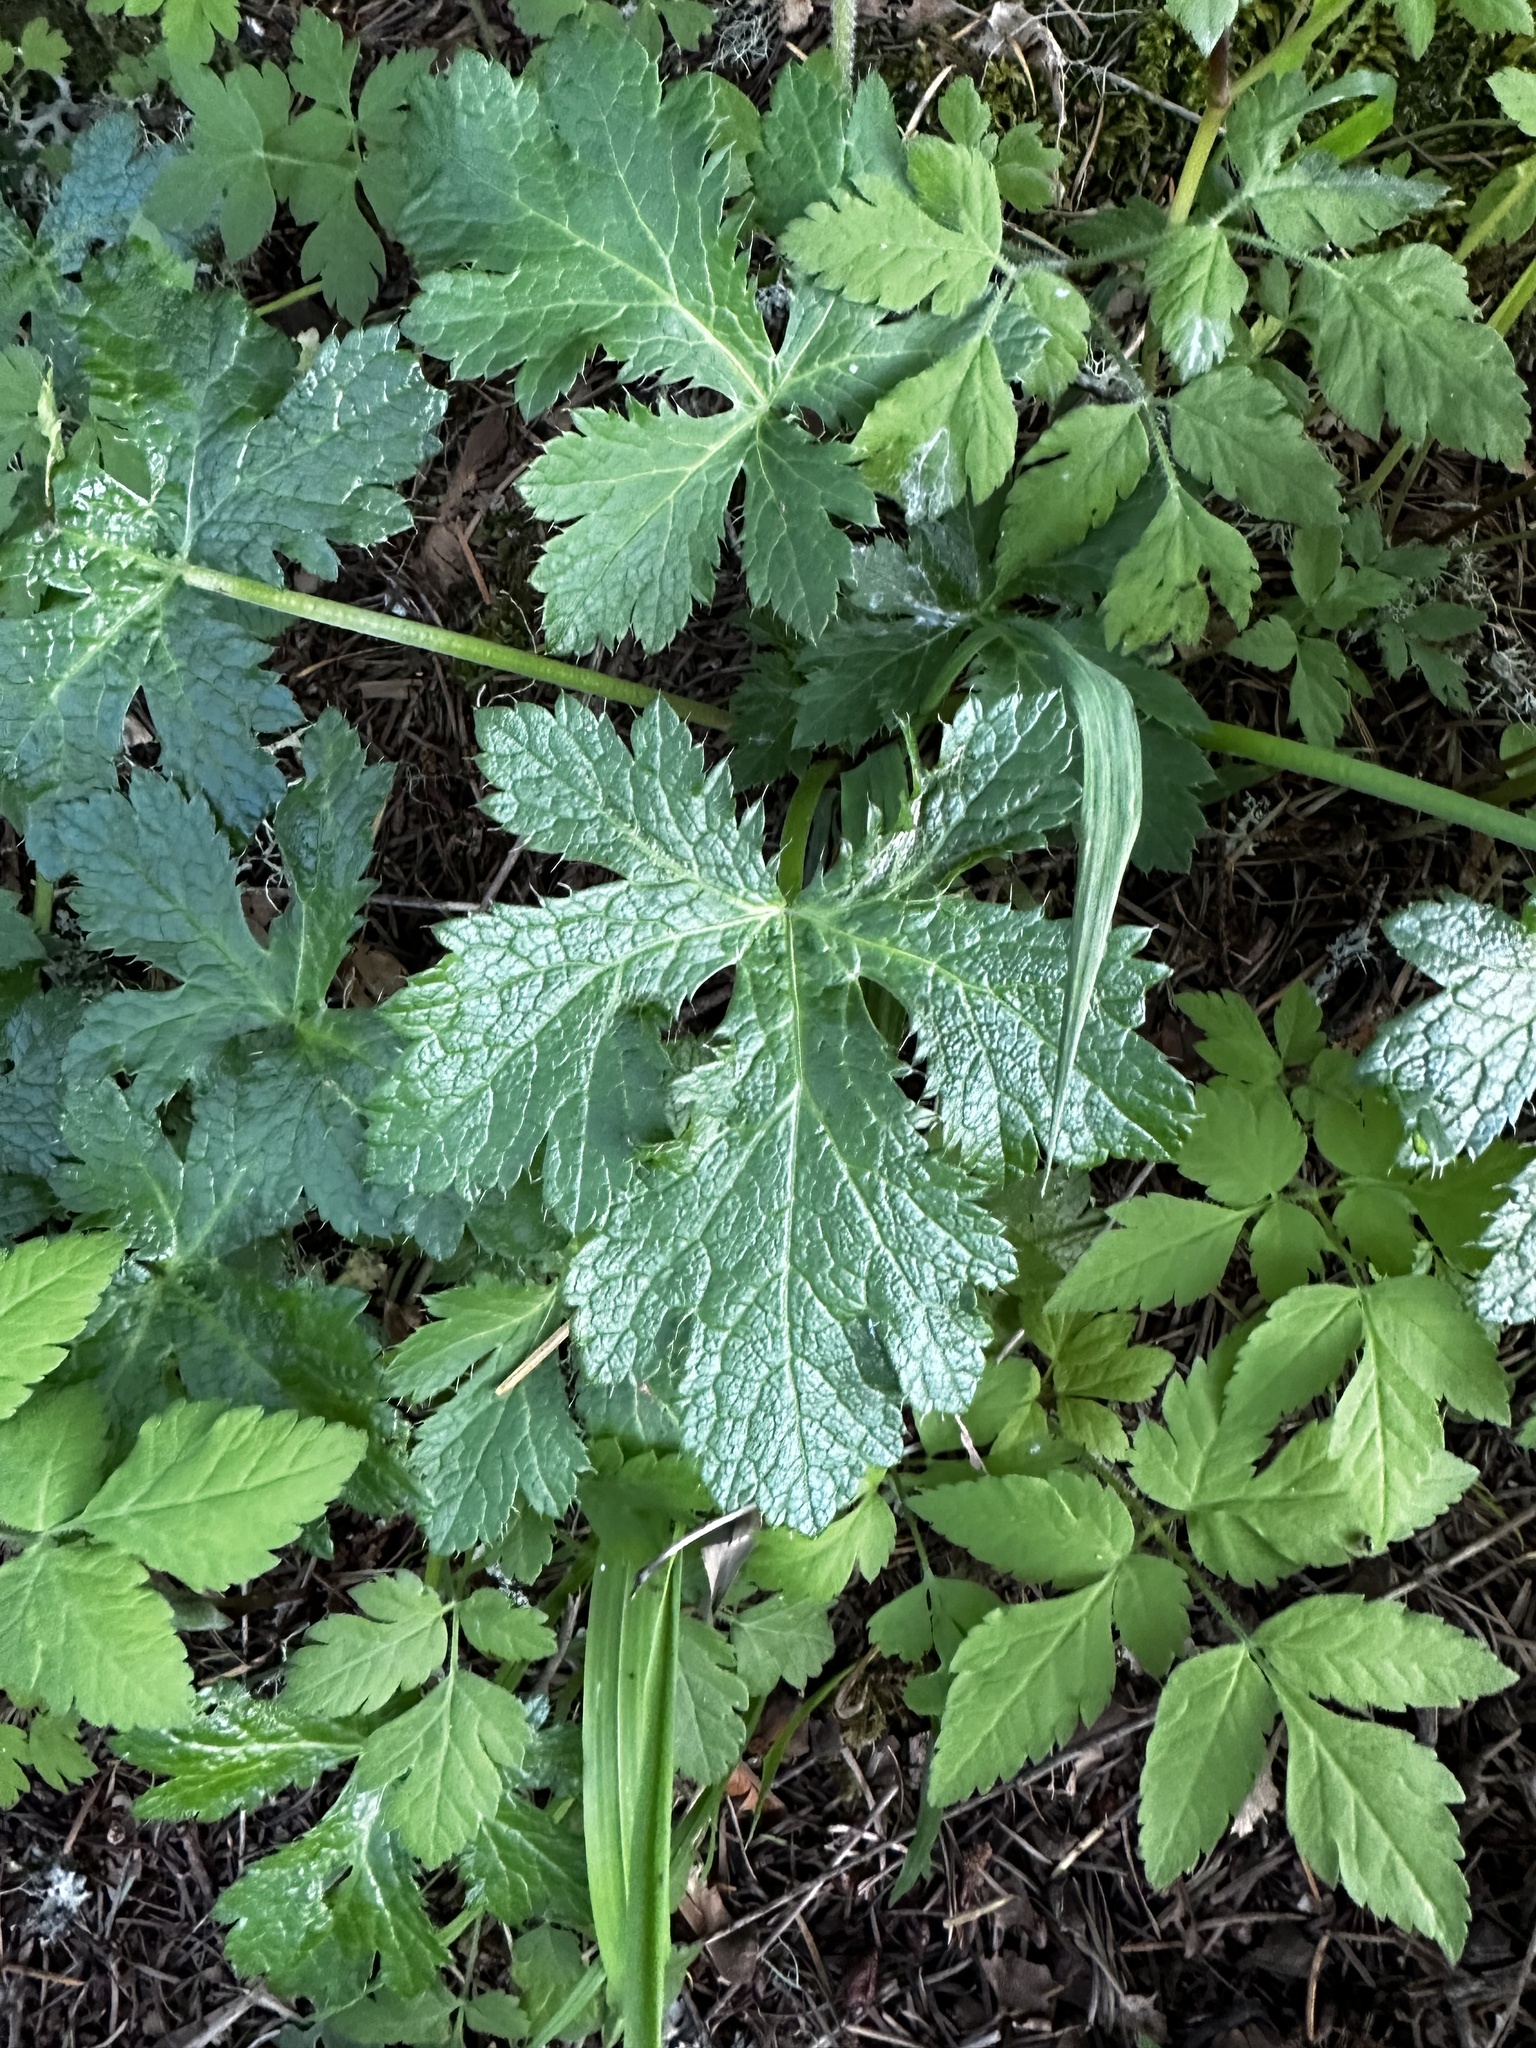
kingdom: Plantae
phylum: Tracheophyta
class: Magnoliopsida
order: Apiales
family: Apiaceae
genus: Sanicula
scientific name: Sanicula crassicaulis
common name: Western snakeroot
